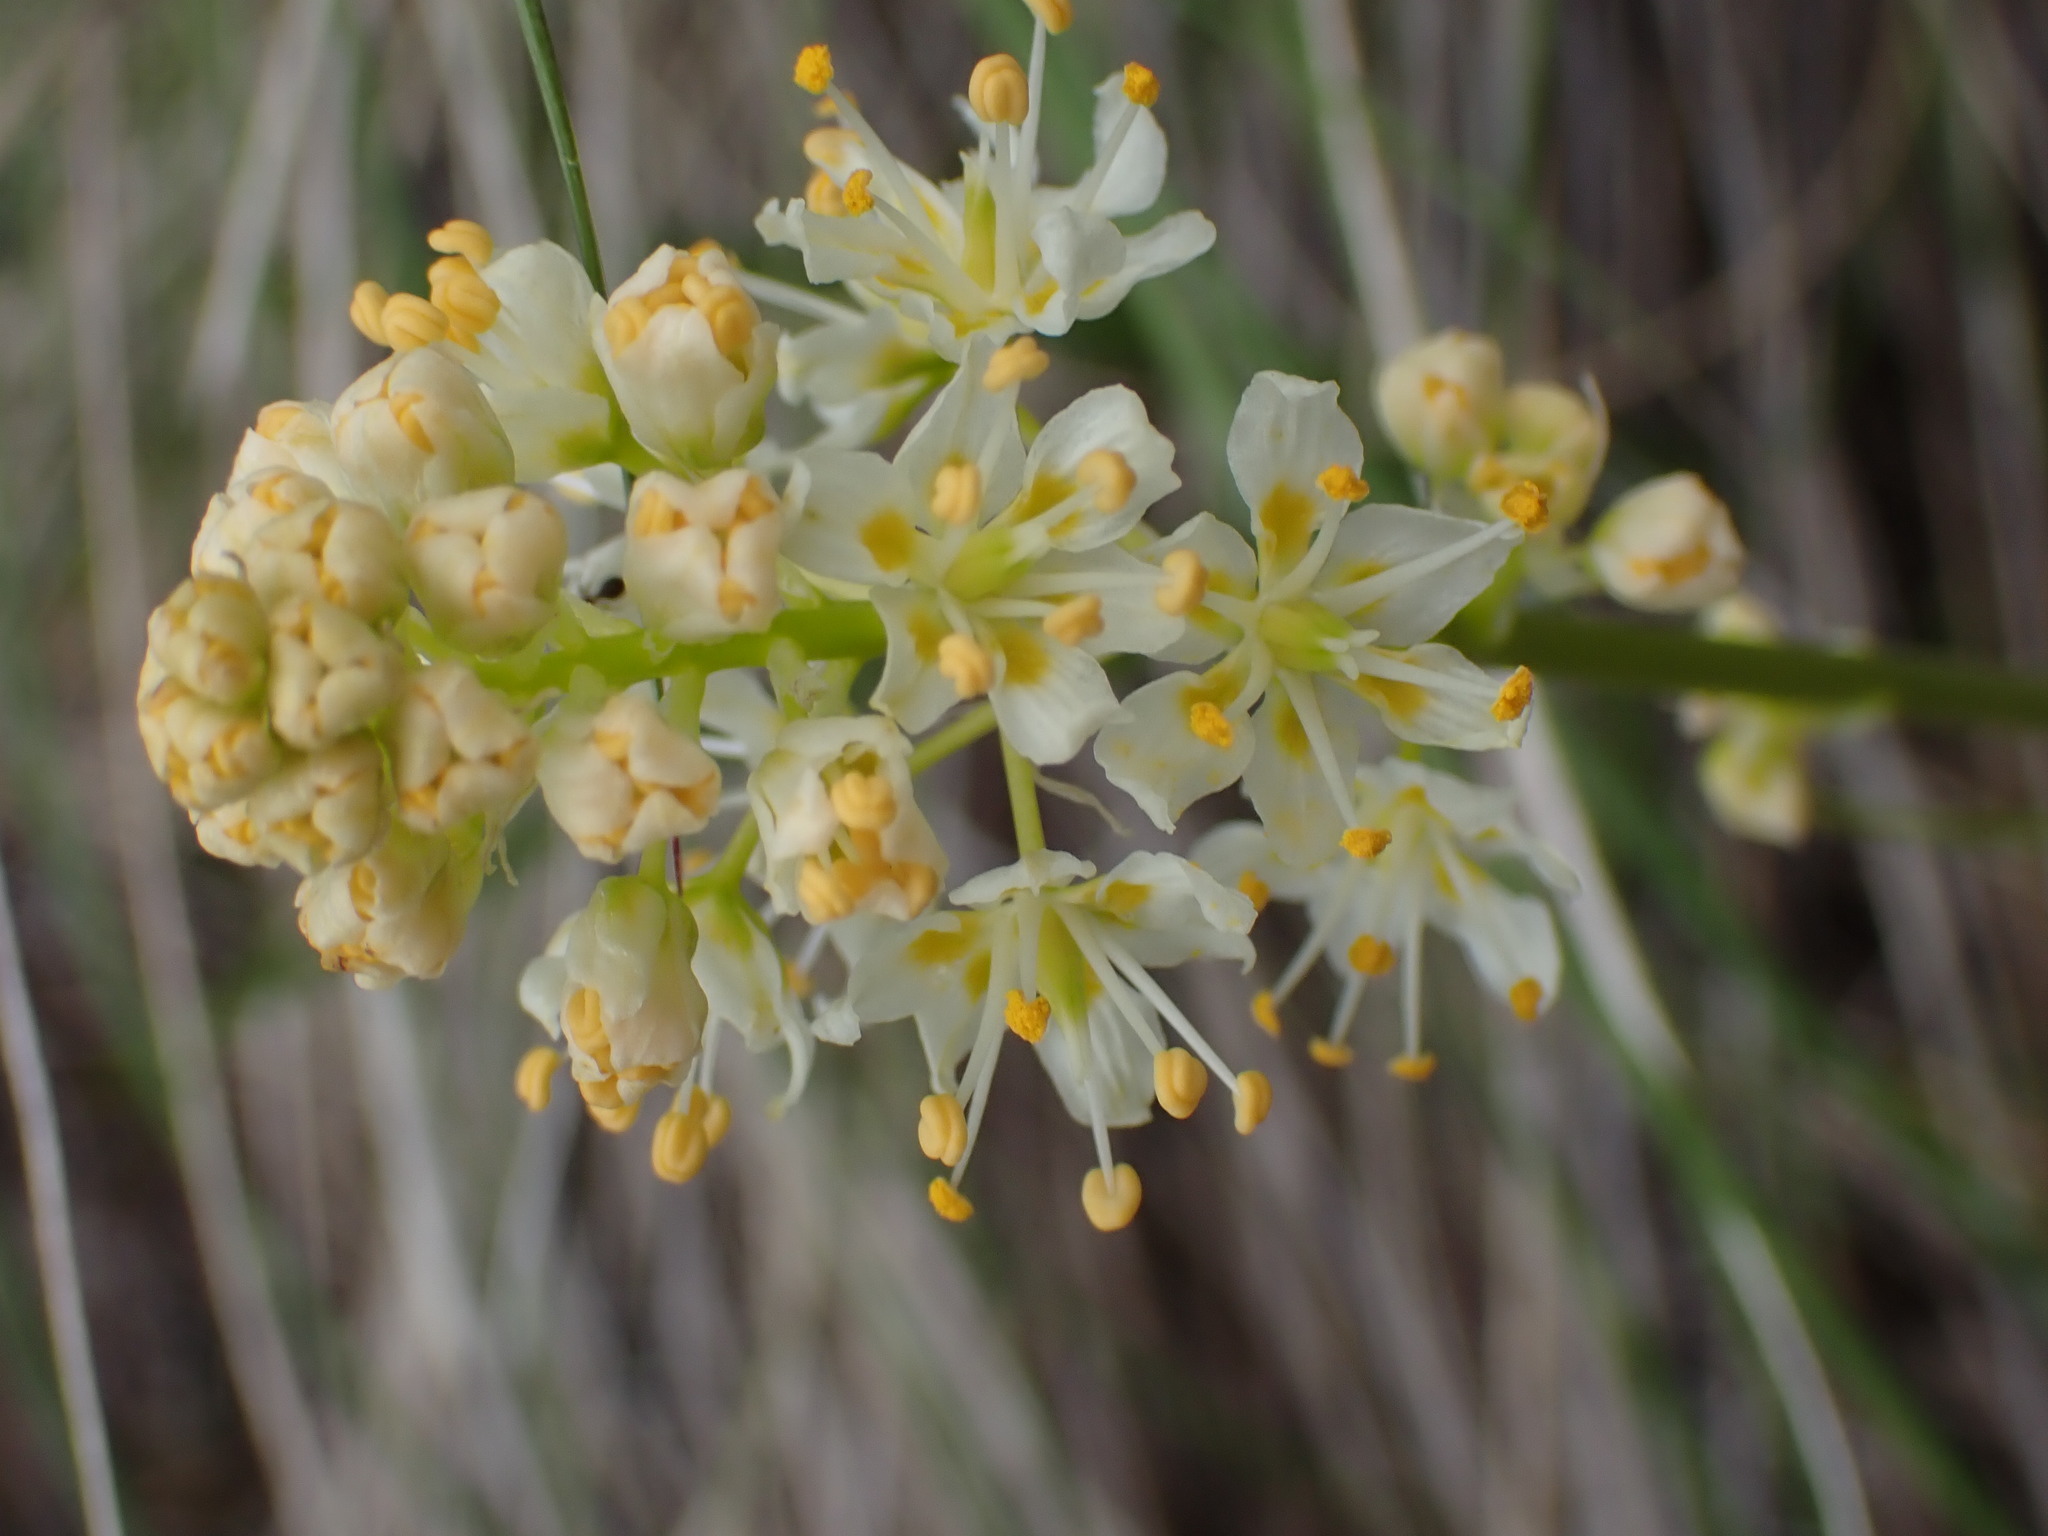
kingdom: Plantae
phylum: Tracheophyta
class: Liliopsida
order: Liliales
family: Melanthiaceae
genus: Toxicoscordion
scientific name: Toxicoscordion venenosum
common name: Meadow death camas
